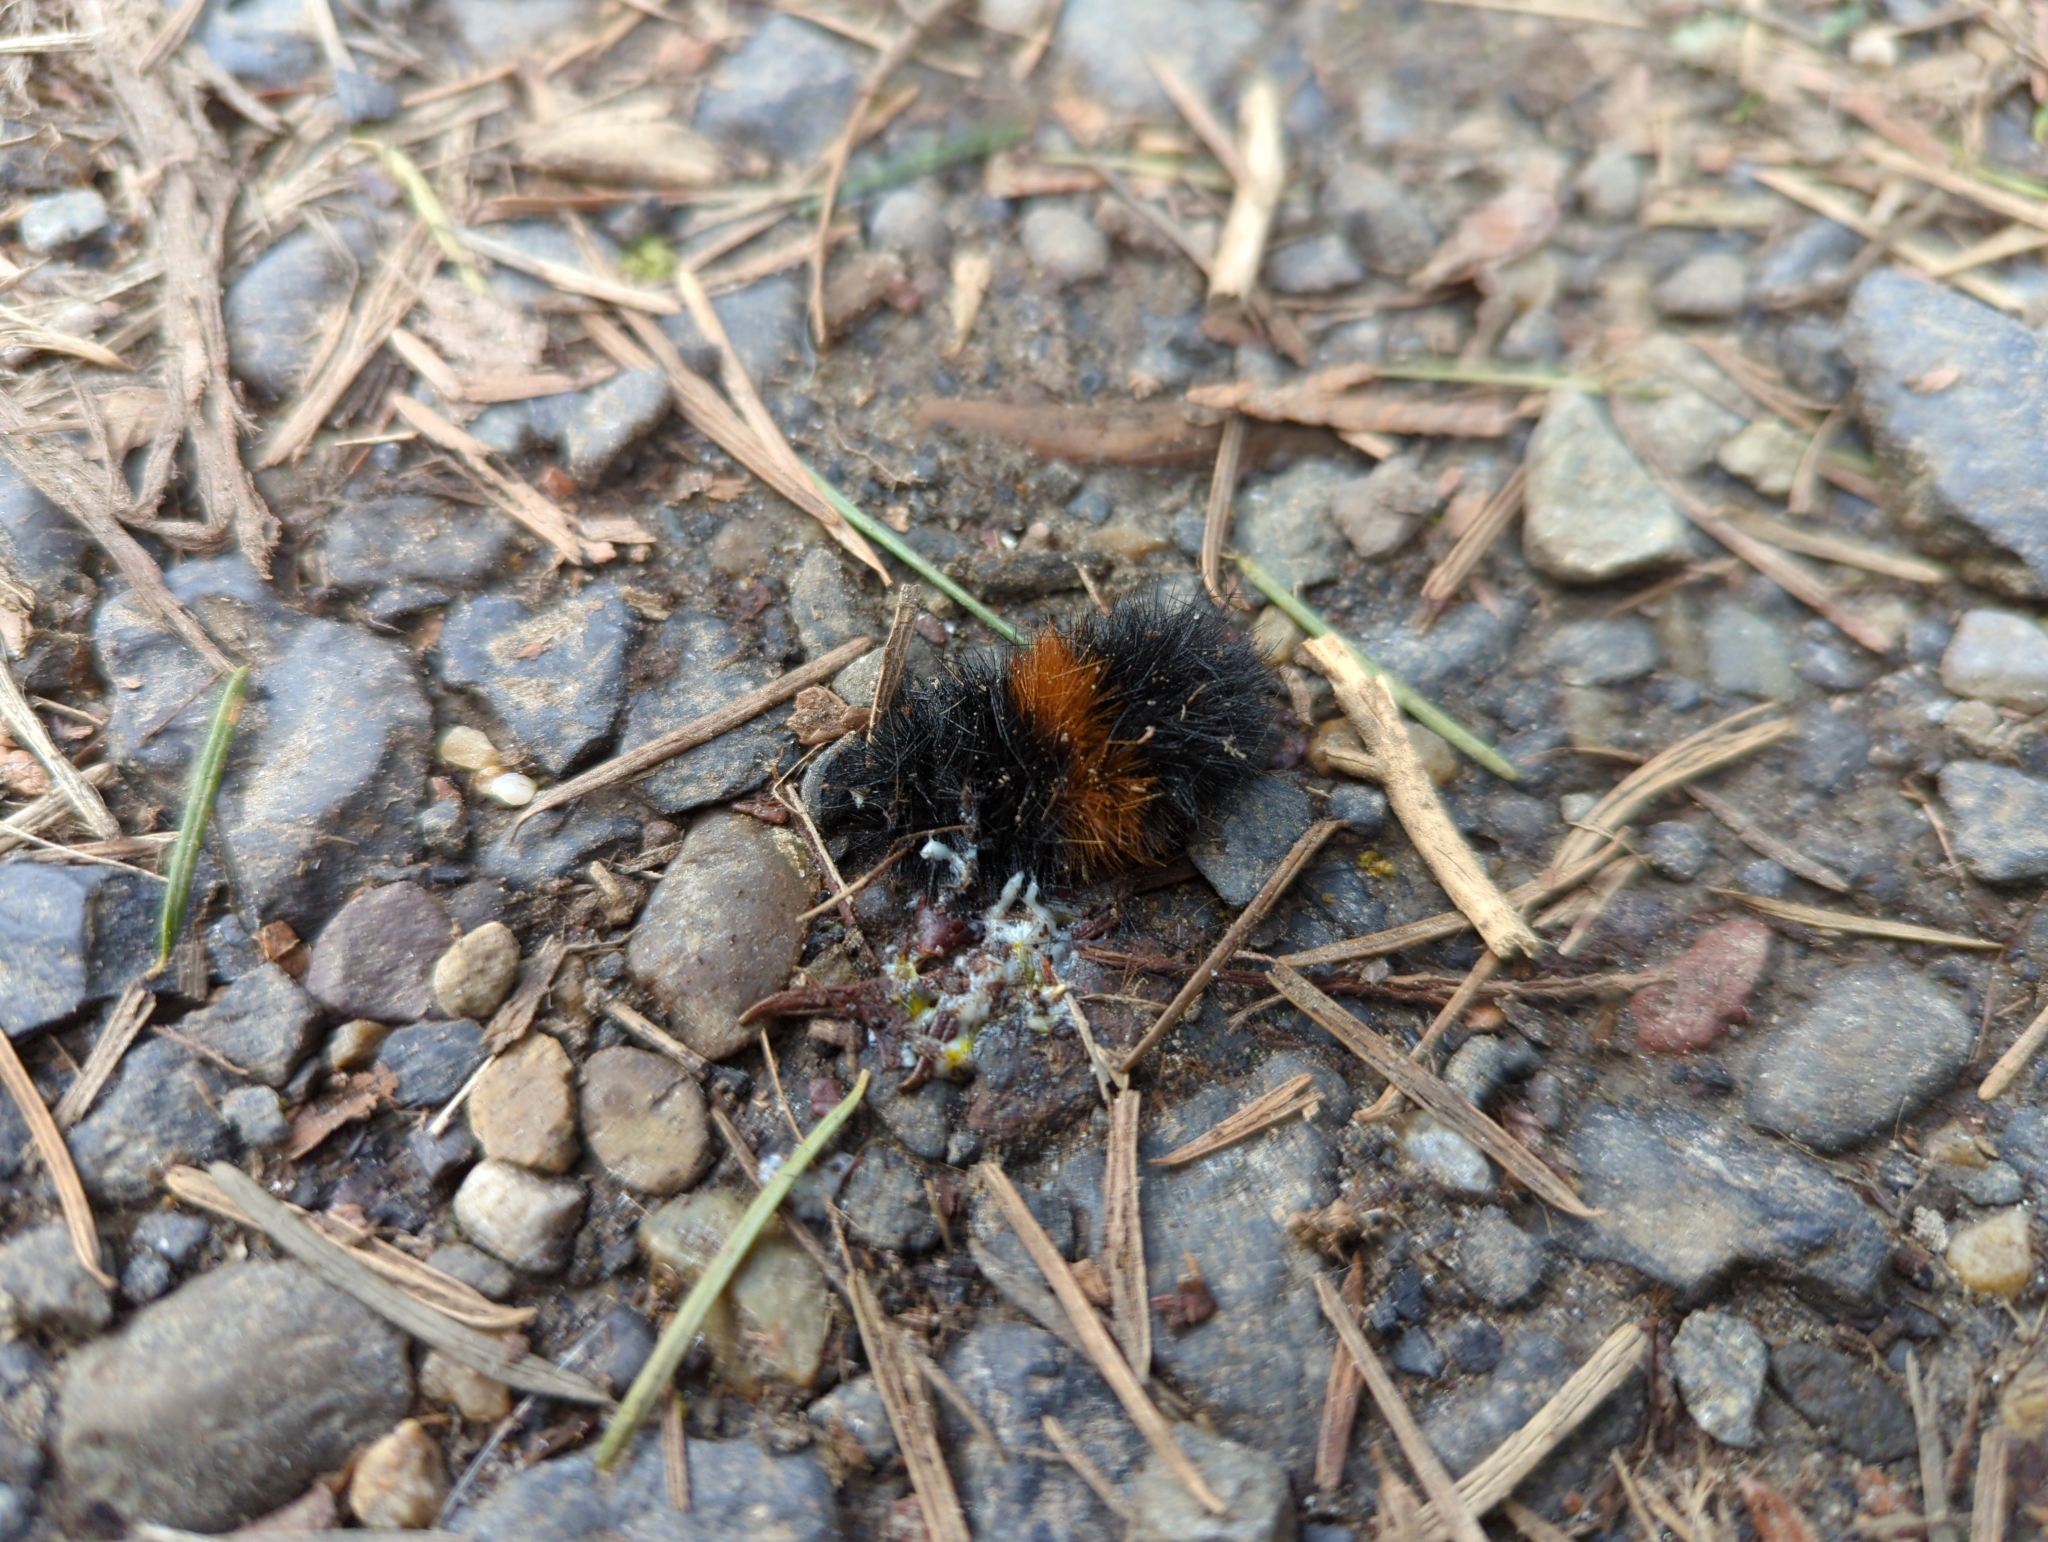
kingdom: Animalia
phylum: Arthropoda
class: Insecta
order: Lepidoptera
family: Erebidae
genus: Pyrrharctia
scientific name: Pyrrharctia isabella
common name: Isabella tiger moth
